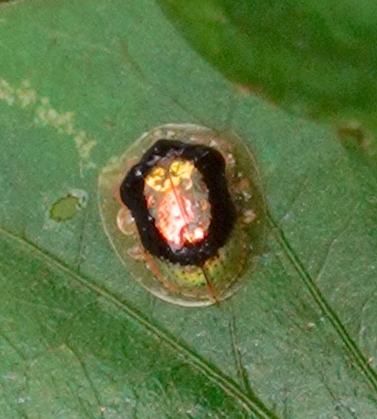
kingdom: Animalia
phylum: Arthropoda
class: Insecta
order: Coleoptera
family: Chrysomelidae
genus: Microctenochira
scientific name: Microctenochira sertata
